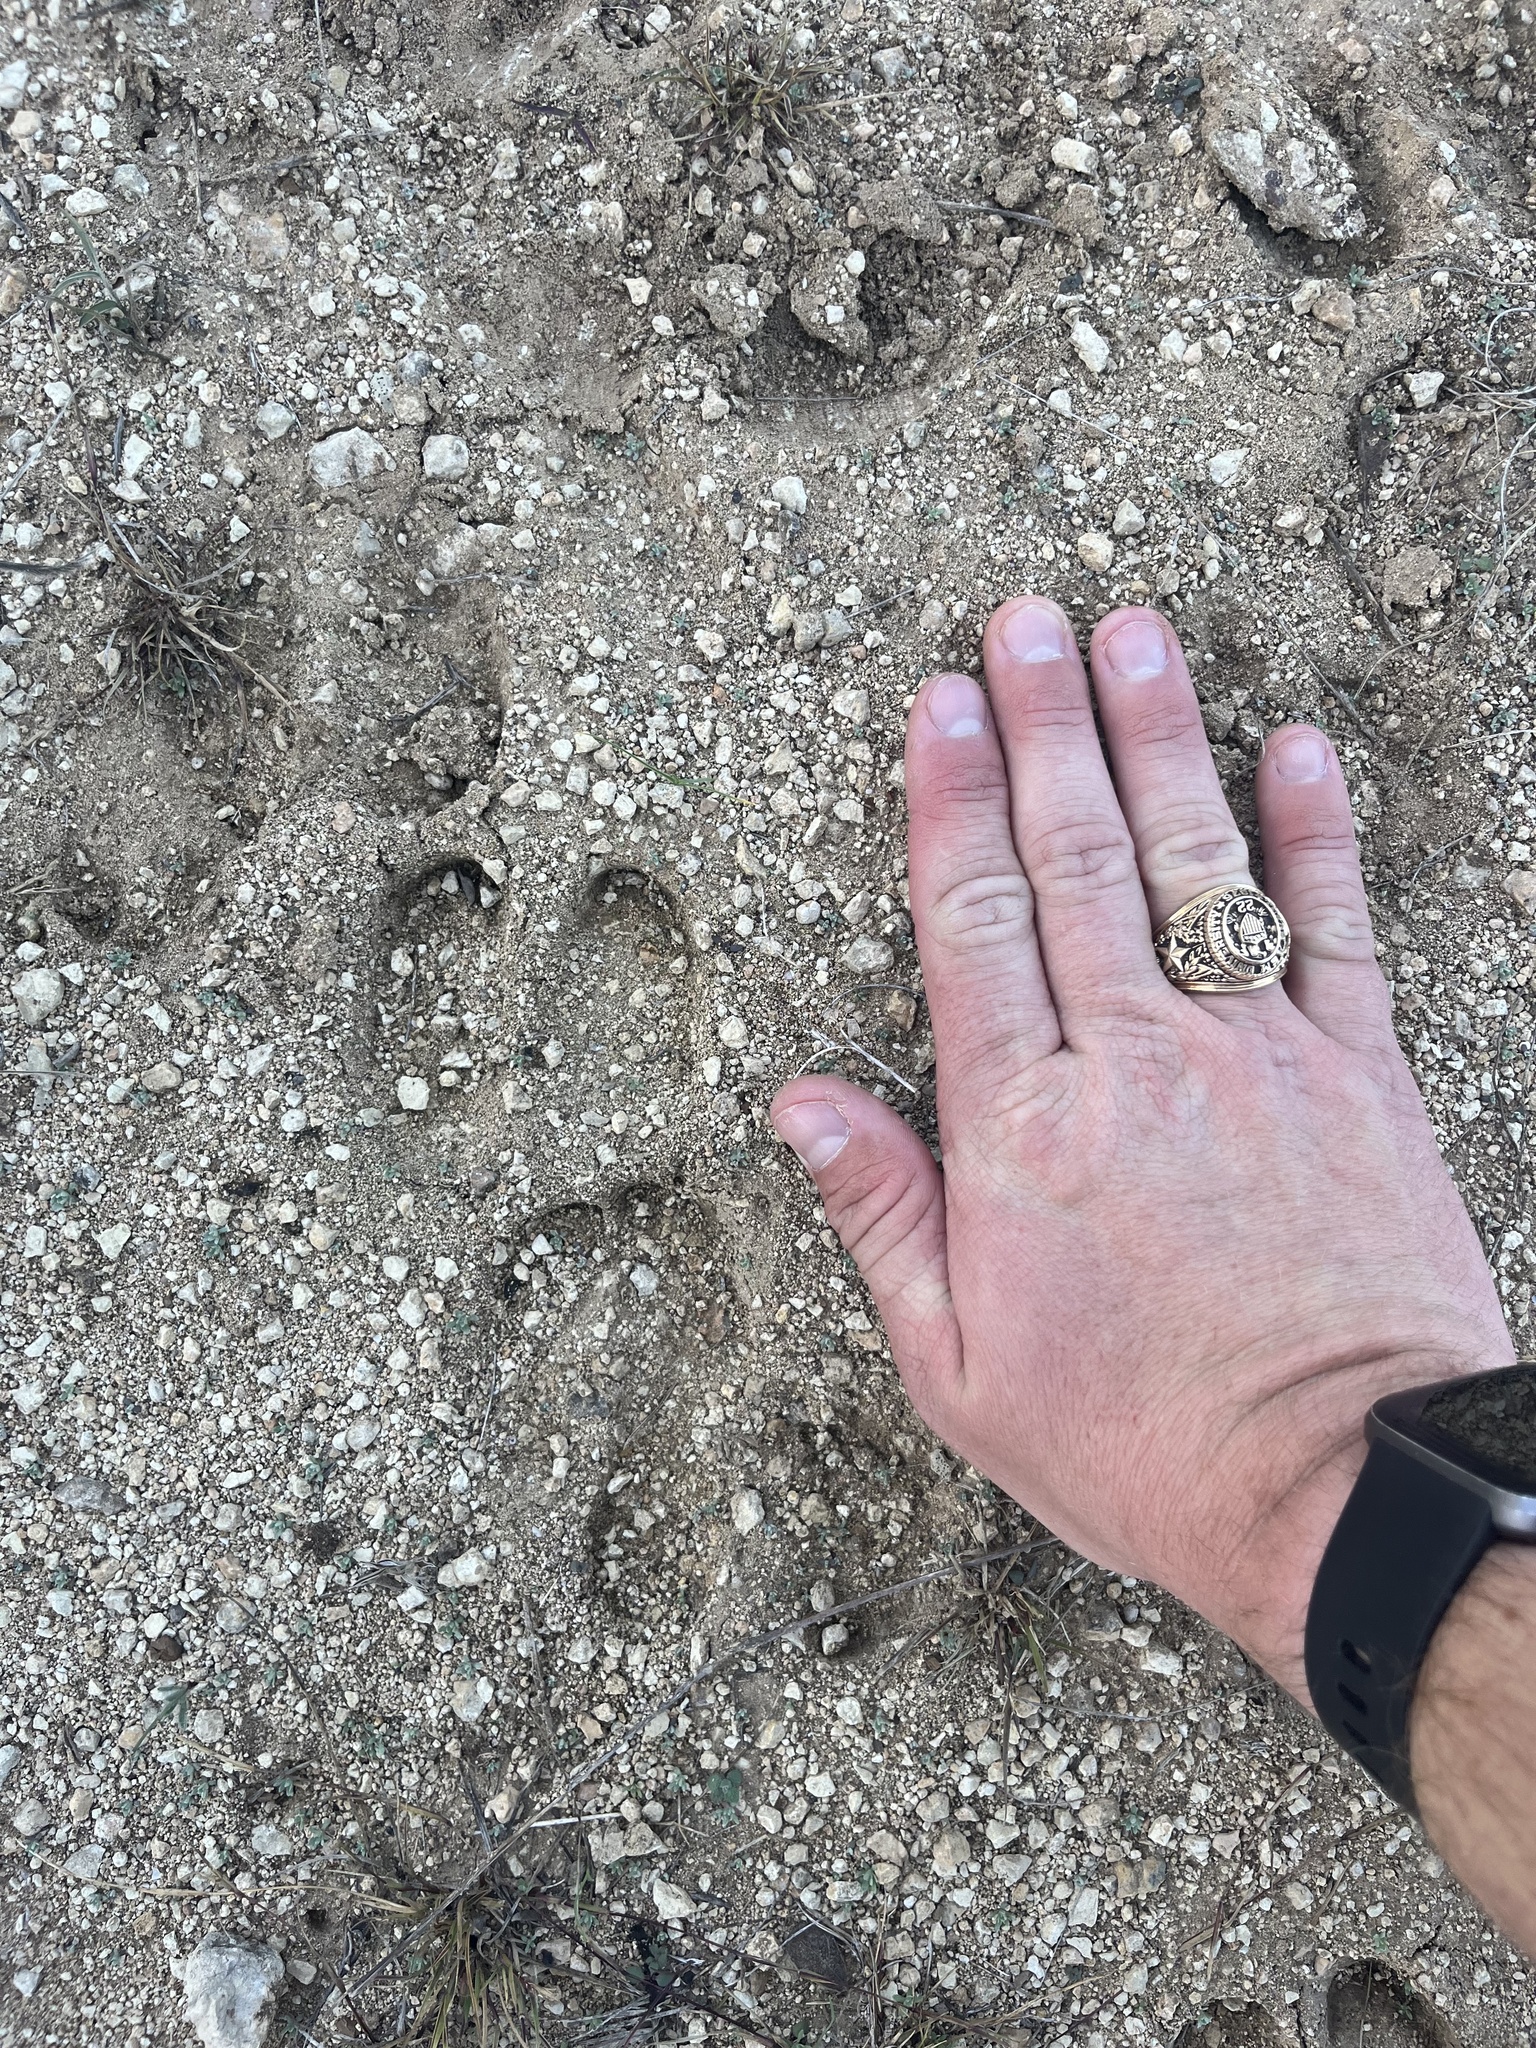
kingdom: Animalia
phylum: Chordata
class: Mammalia
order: Artiodactyla
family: Suidae
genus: Sus
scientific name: Sus scrofa
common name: Wild boar
